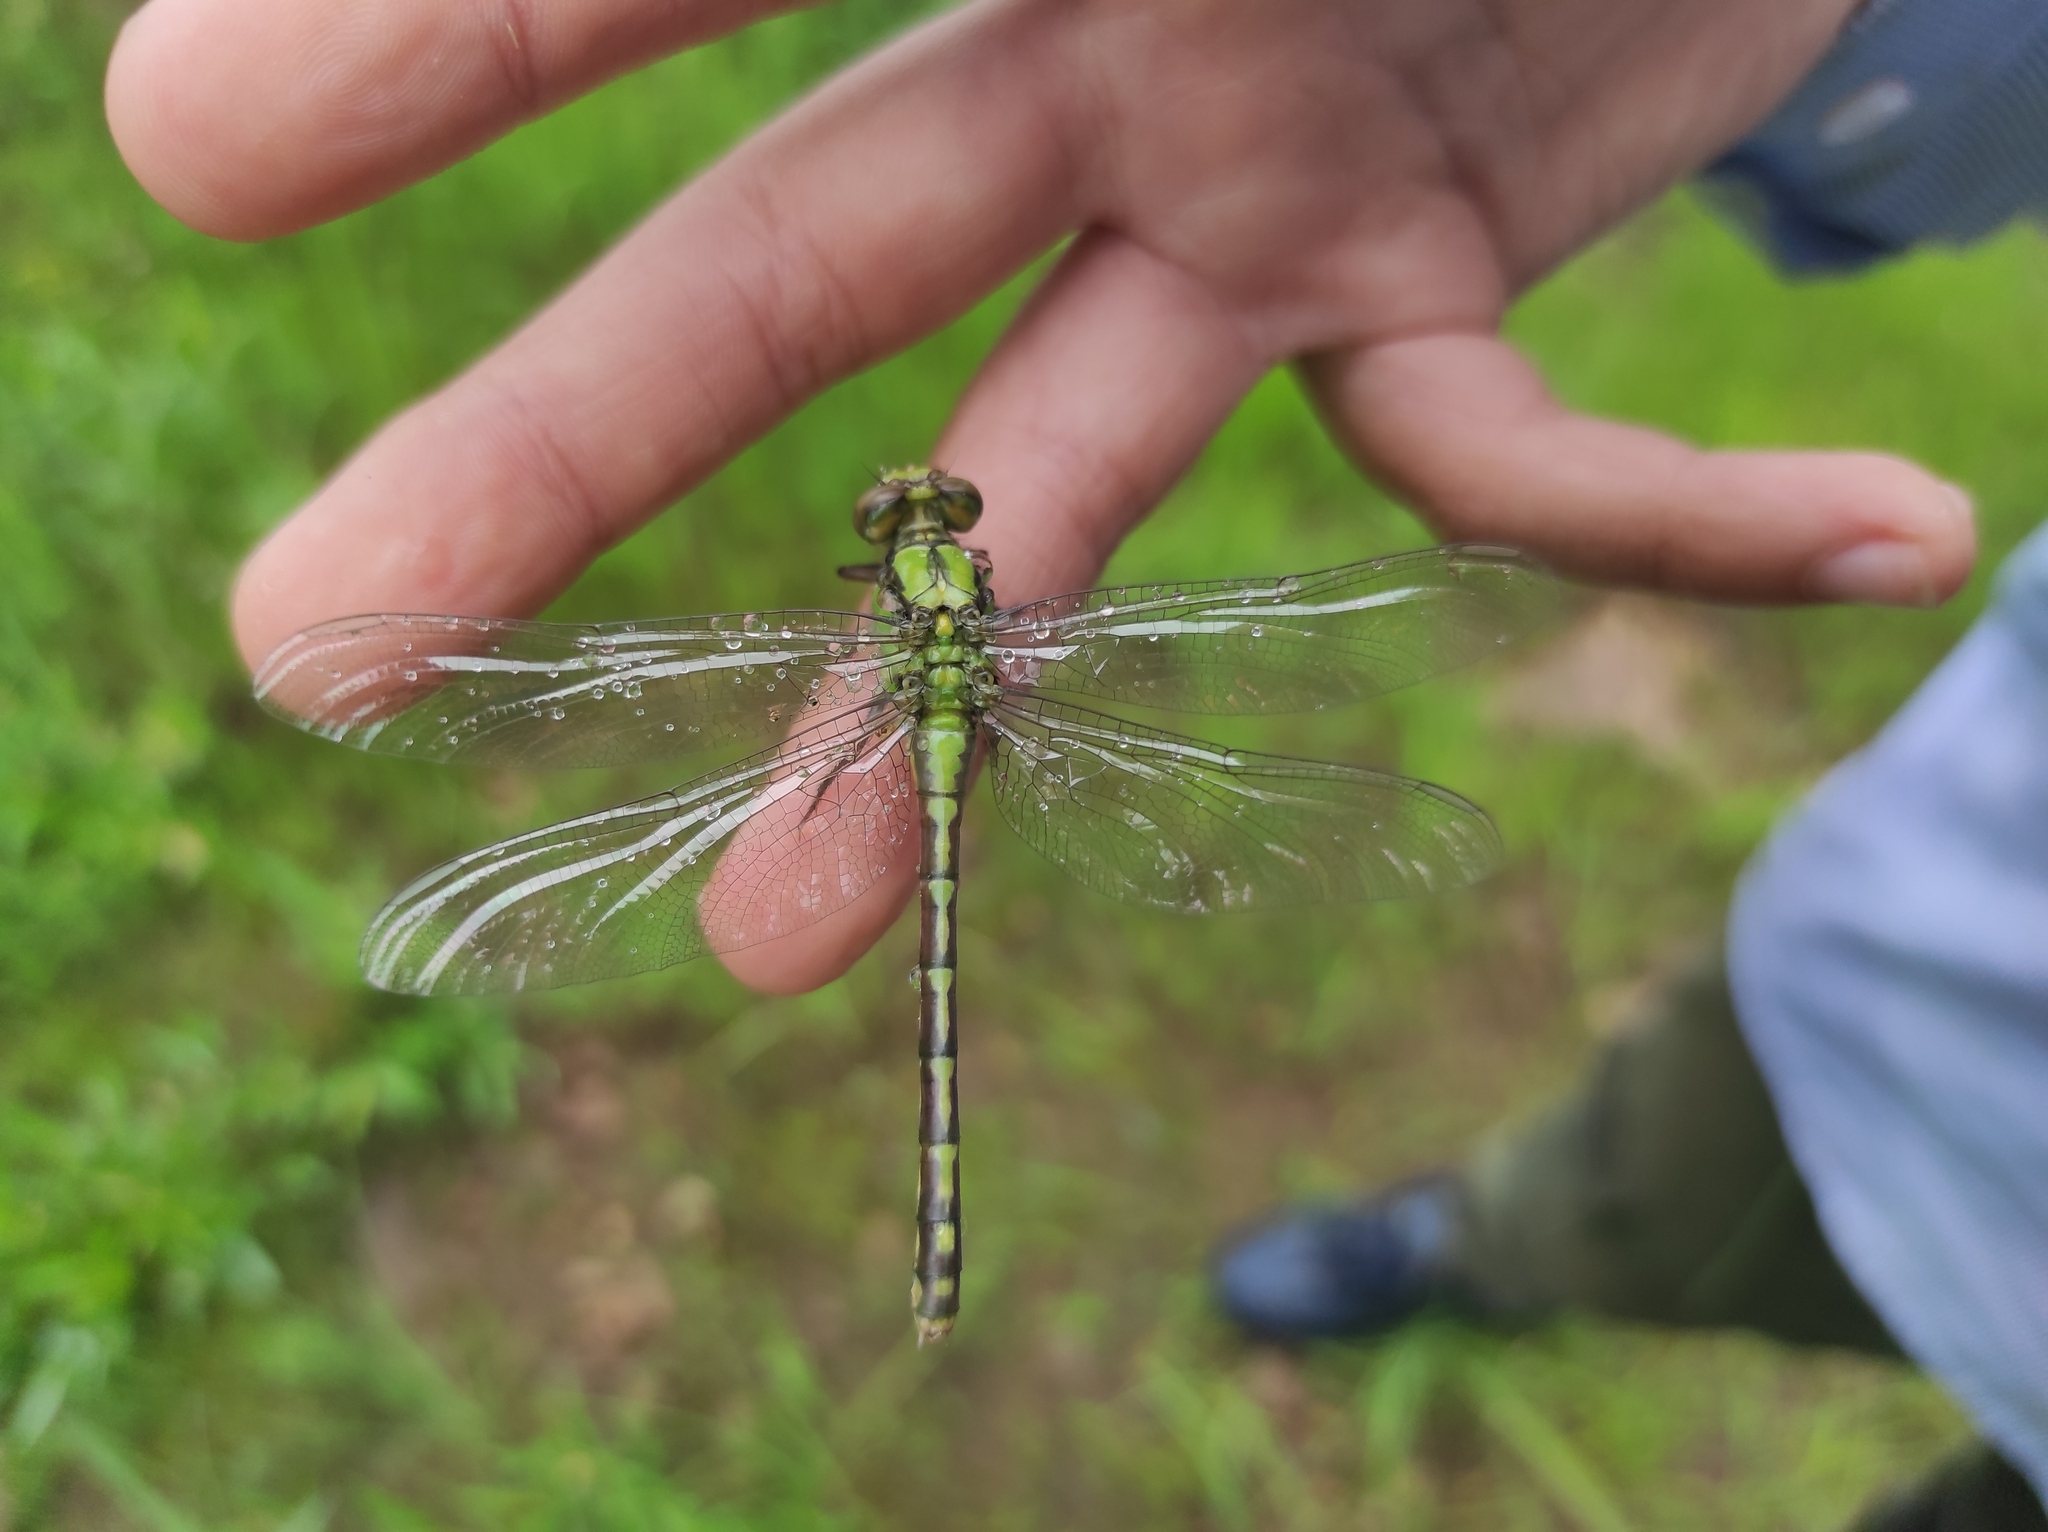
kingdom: Animalia
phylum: Arthropoda
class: Insecta
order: Odonata
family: Gomphidae
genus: Ophiogomphus
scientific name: Ophiogomphus obscurus
